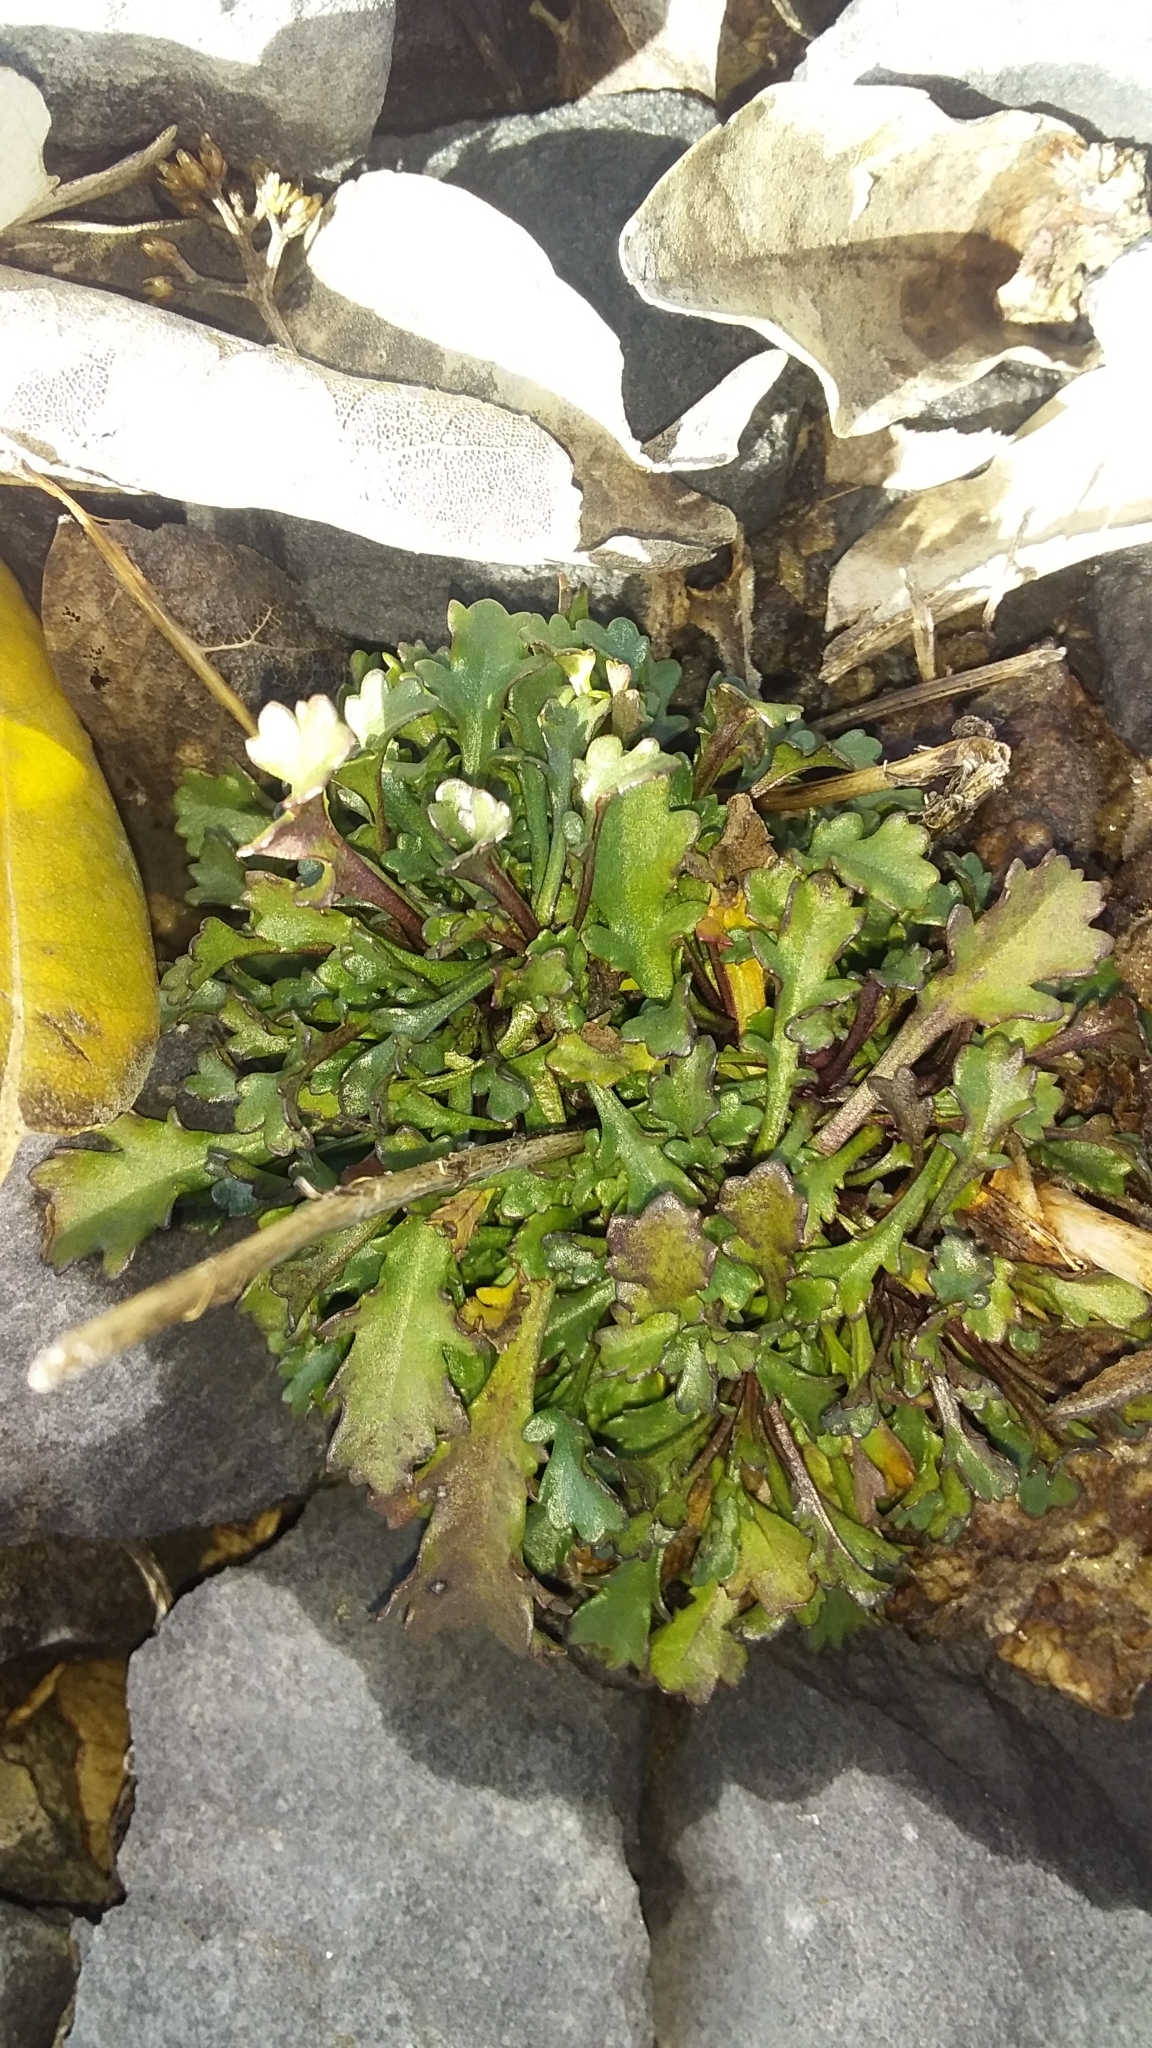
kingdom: Plantae
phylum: Tracheophyta
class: Magnoliopsida
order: Asterales
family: Asteraceae
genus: Leucanthemum
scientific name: Leucanthemum vulgare
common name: Oxeye daisy
